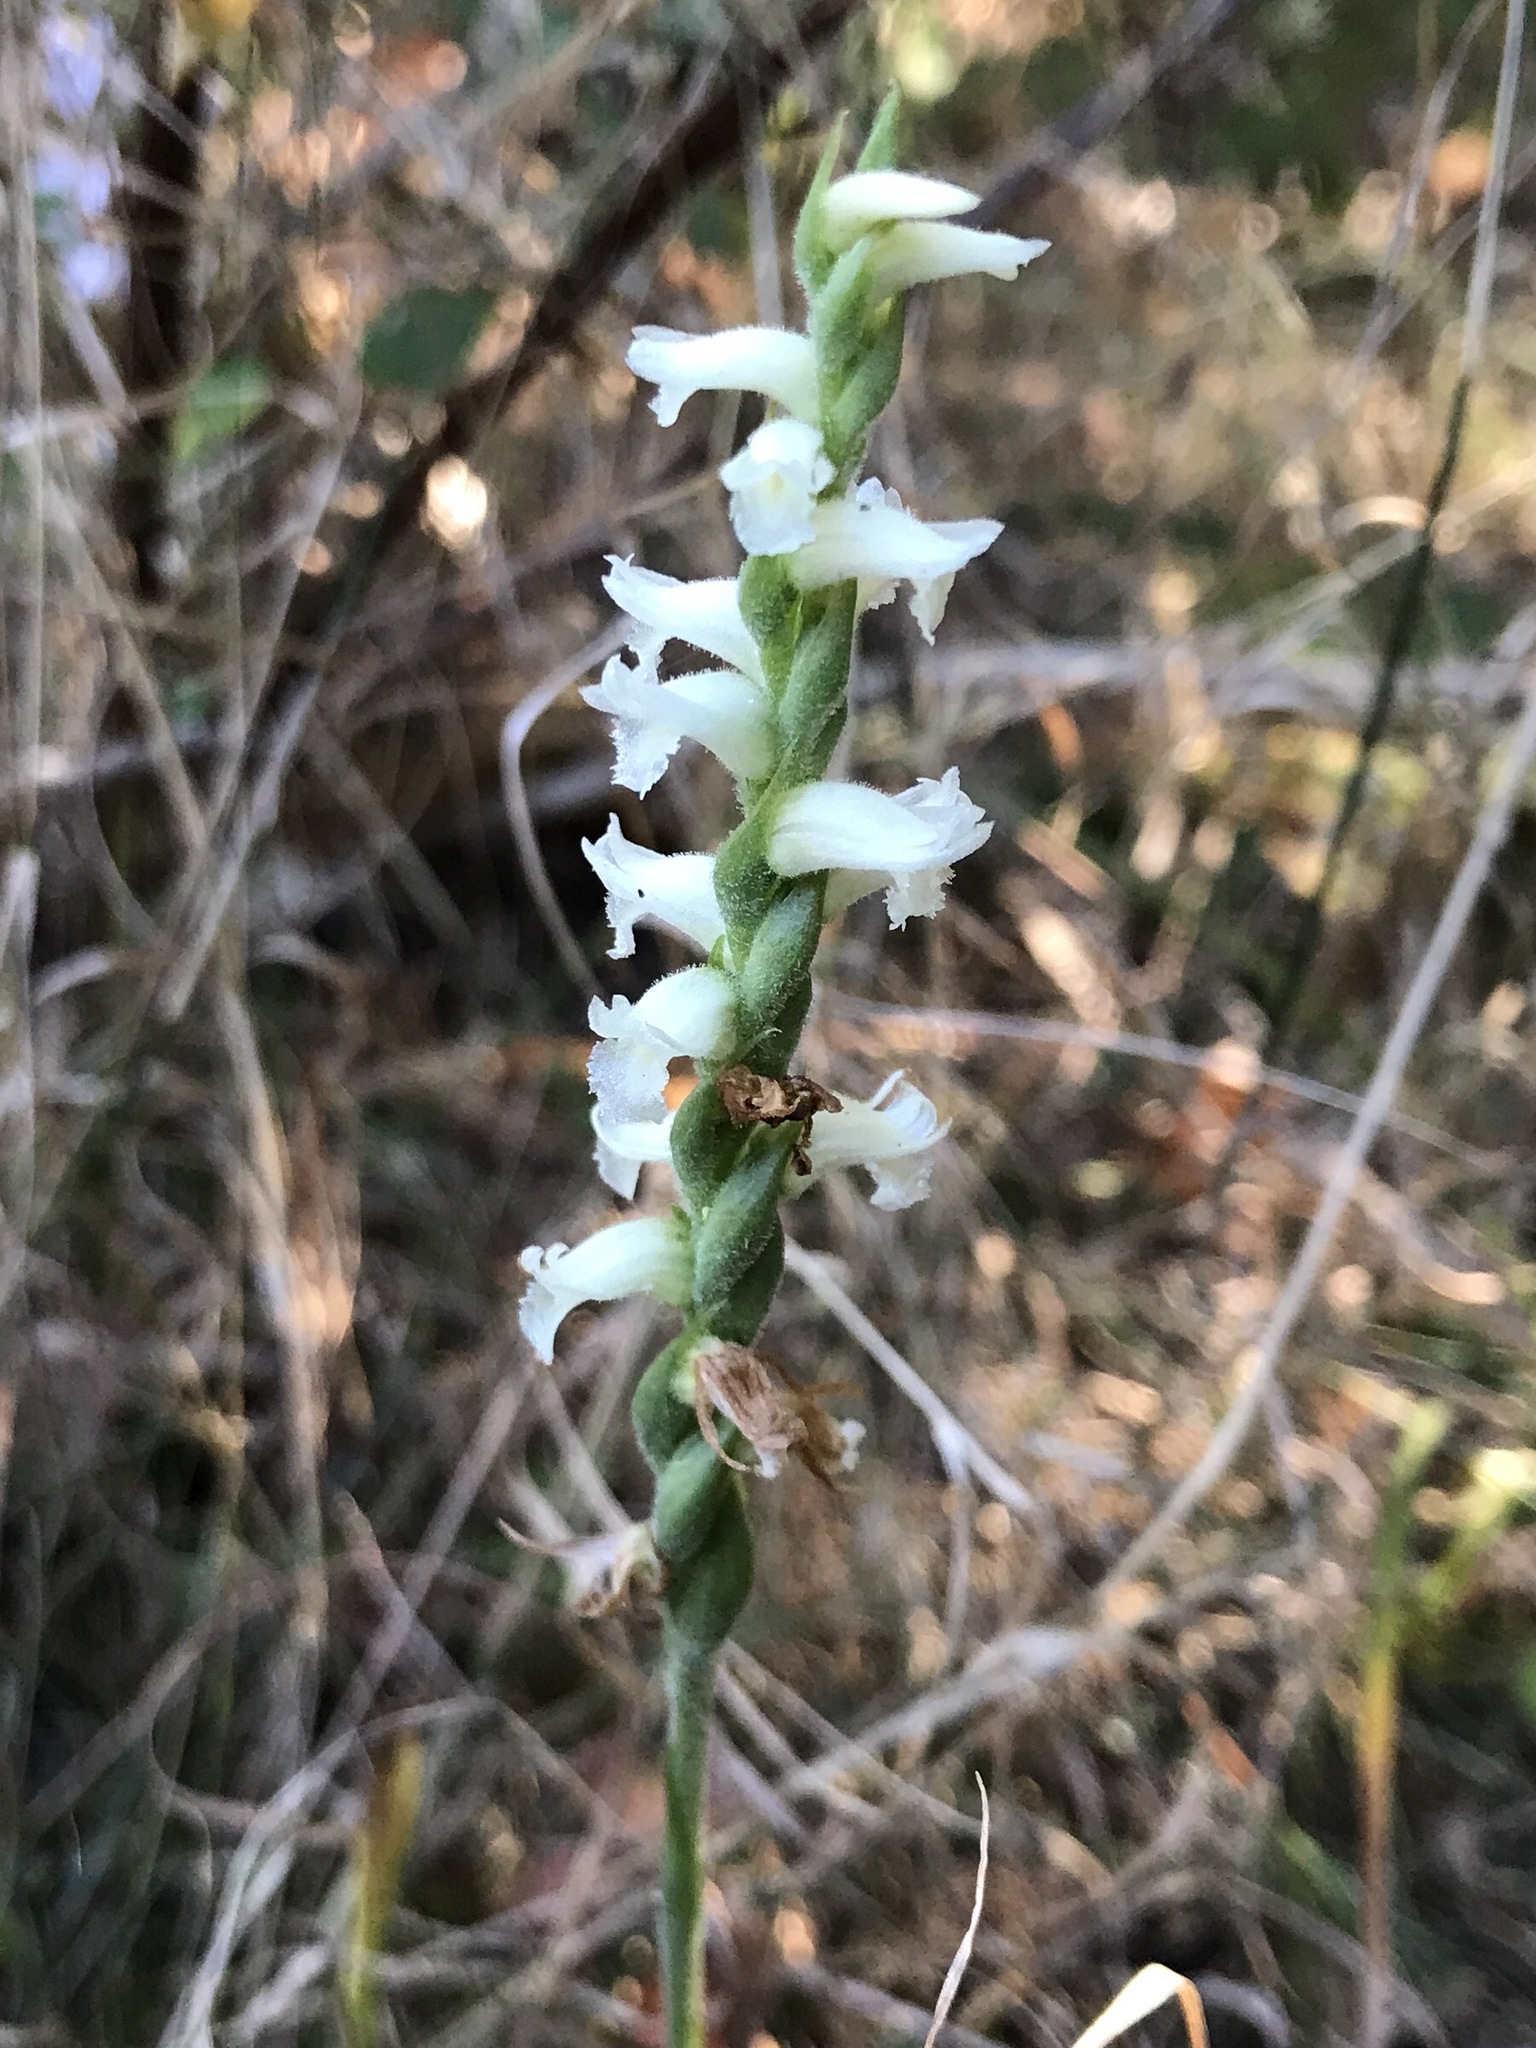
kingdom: Plantae
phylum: Tracheophyta
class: Liliopsida
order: Asparagales
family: Orchidaceae
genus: Spiranthes
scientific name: Spiranthes cernua
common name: Dropping ladies'-tresses
